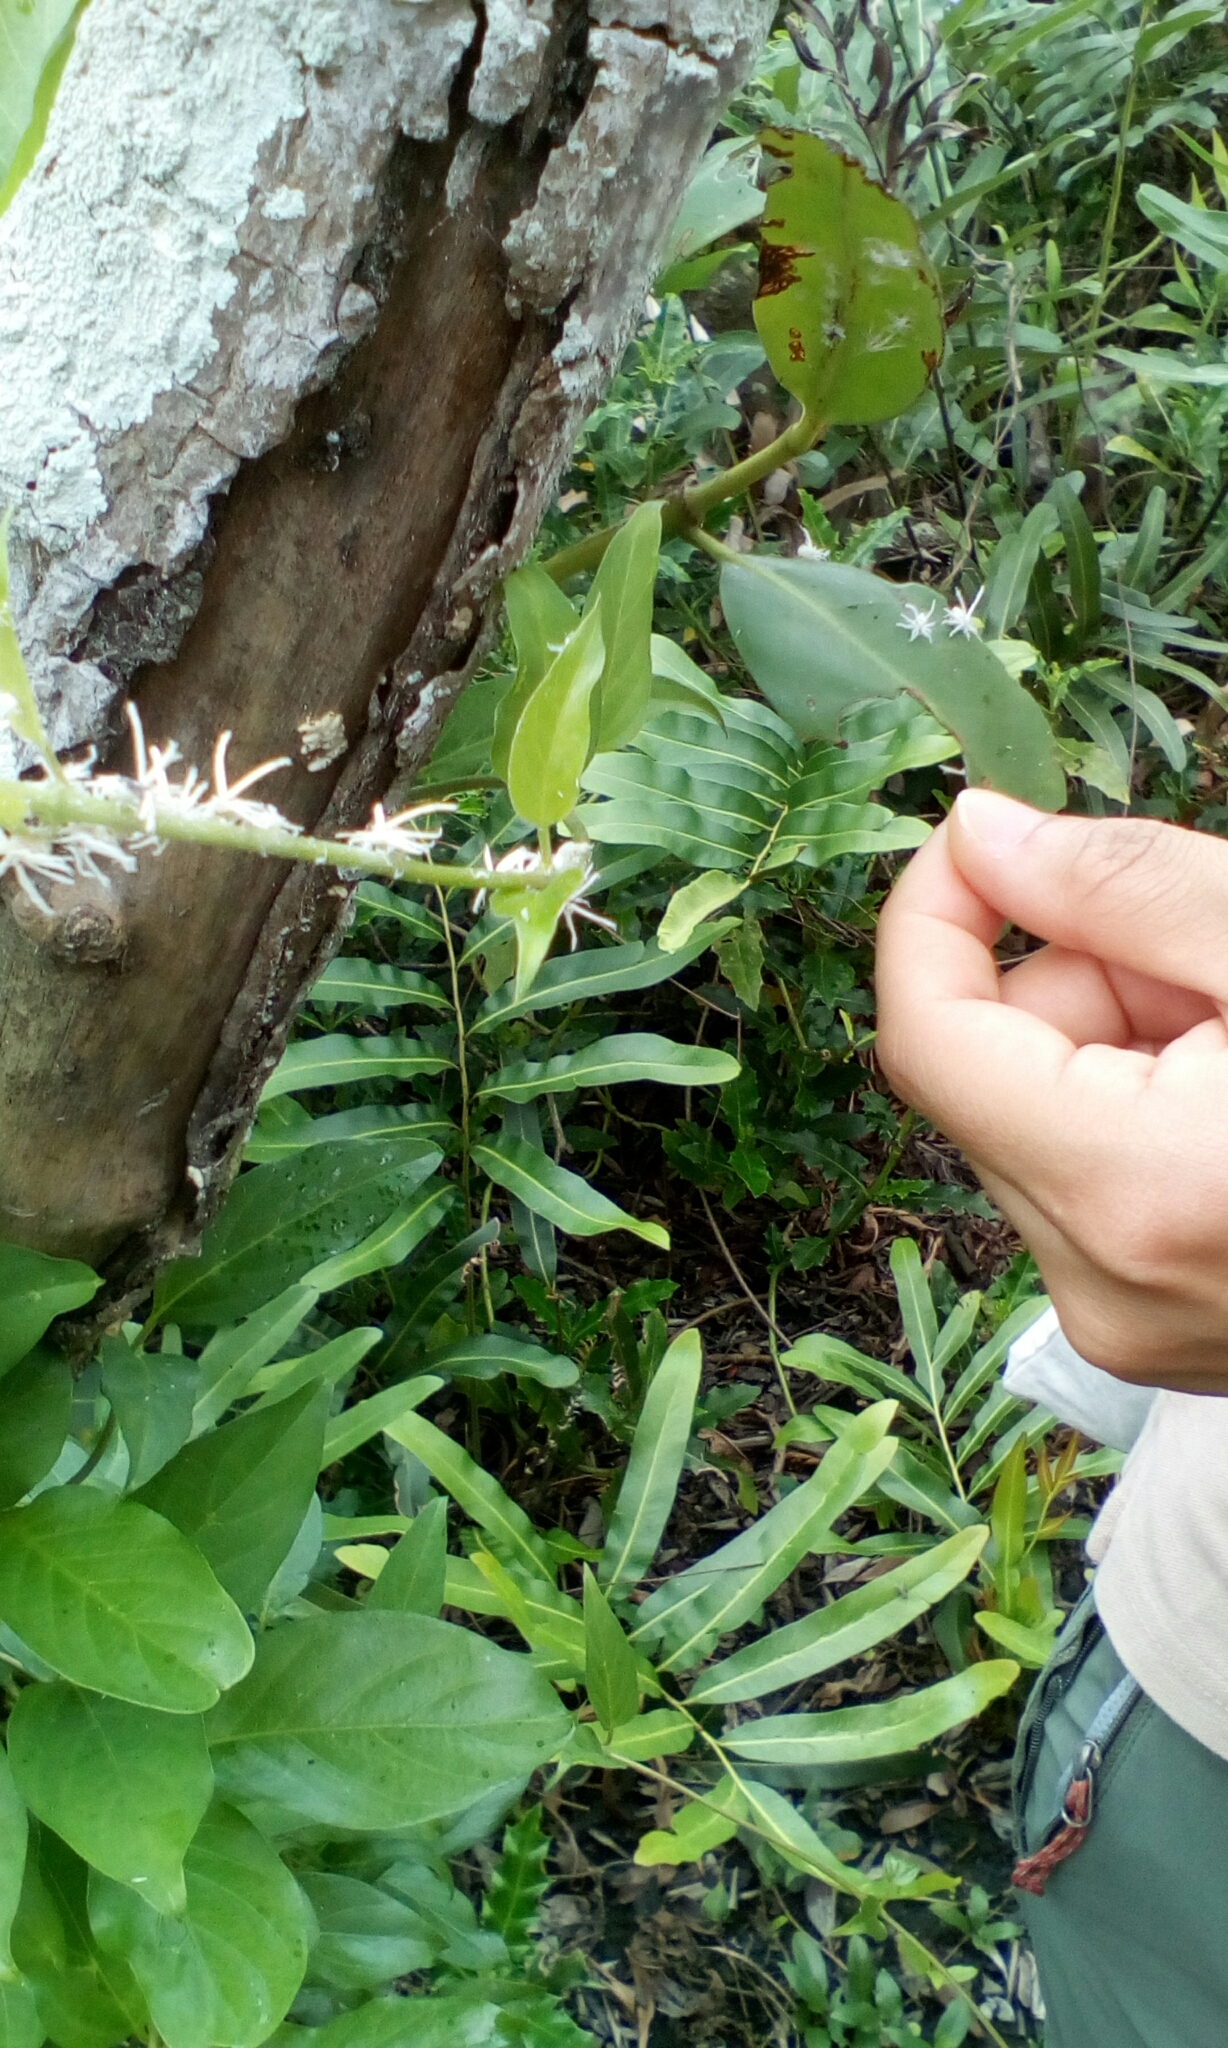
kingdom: Animalia
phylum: Arthropoda
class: Insecta
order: Hemiptera
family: Ricaniidae
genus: Ricania
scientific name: Ricania guttata
